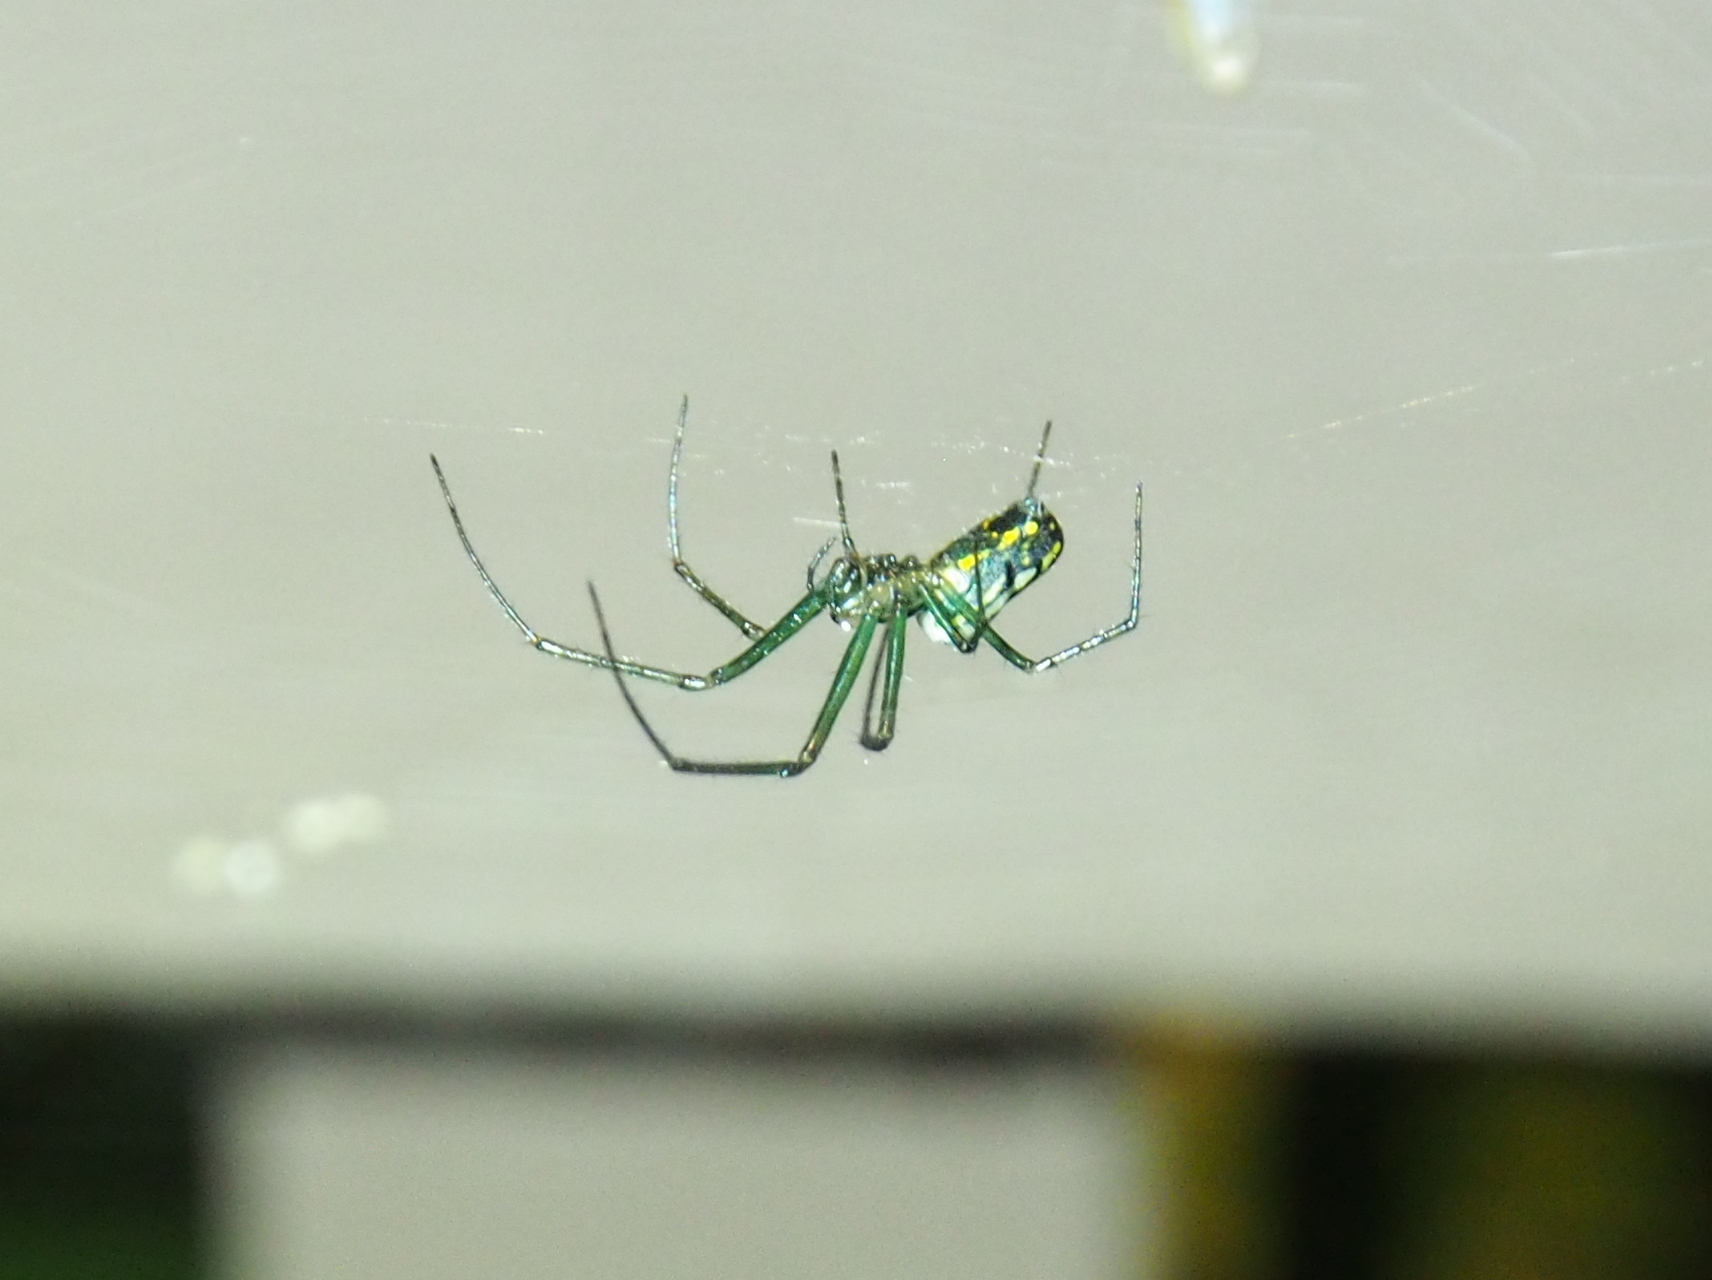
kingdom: Animalia
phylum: Arthropoda
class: Arachnida
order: Araneae
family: Tetragnathidae
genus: Leucauge
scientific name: Leucauge venusta
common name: Longjawed orb weavers
